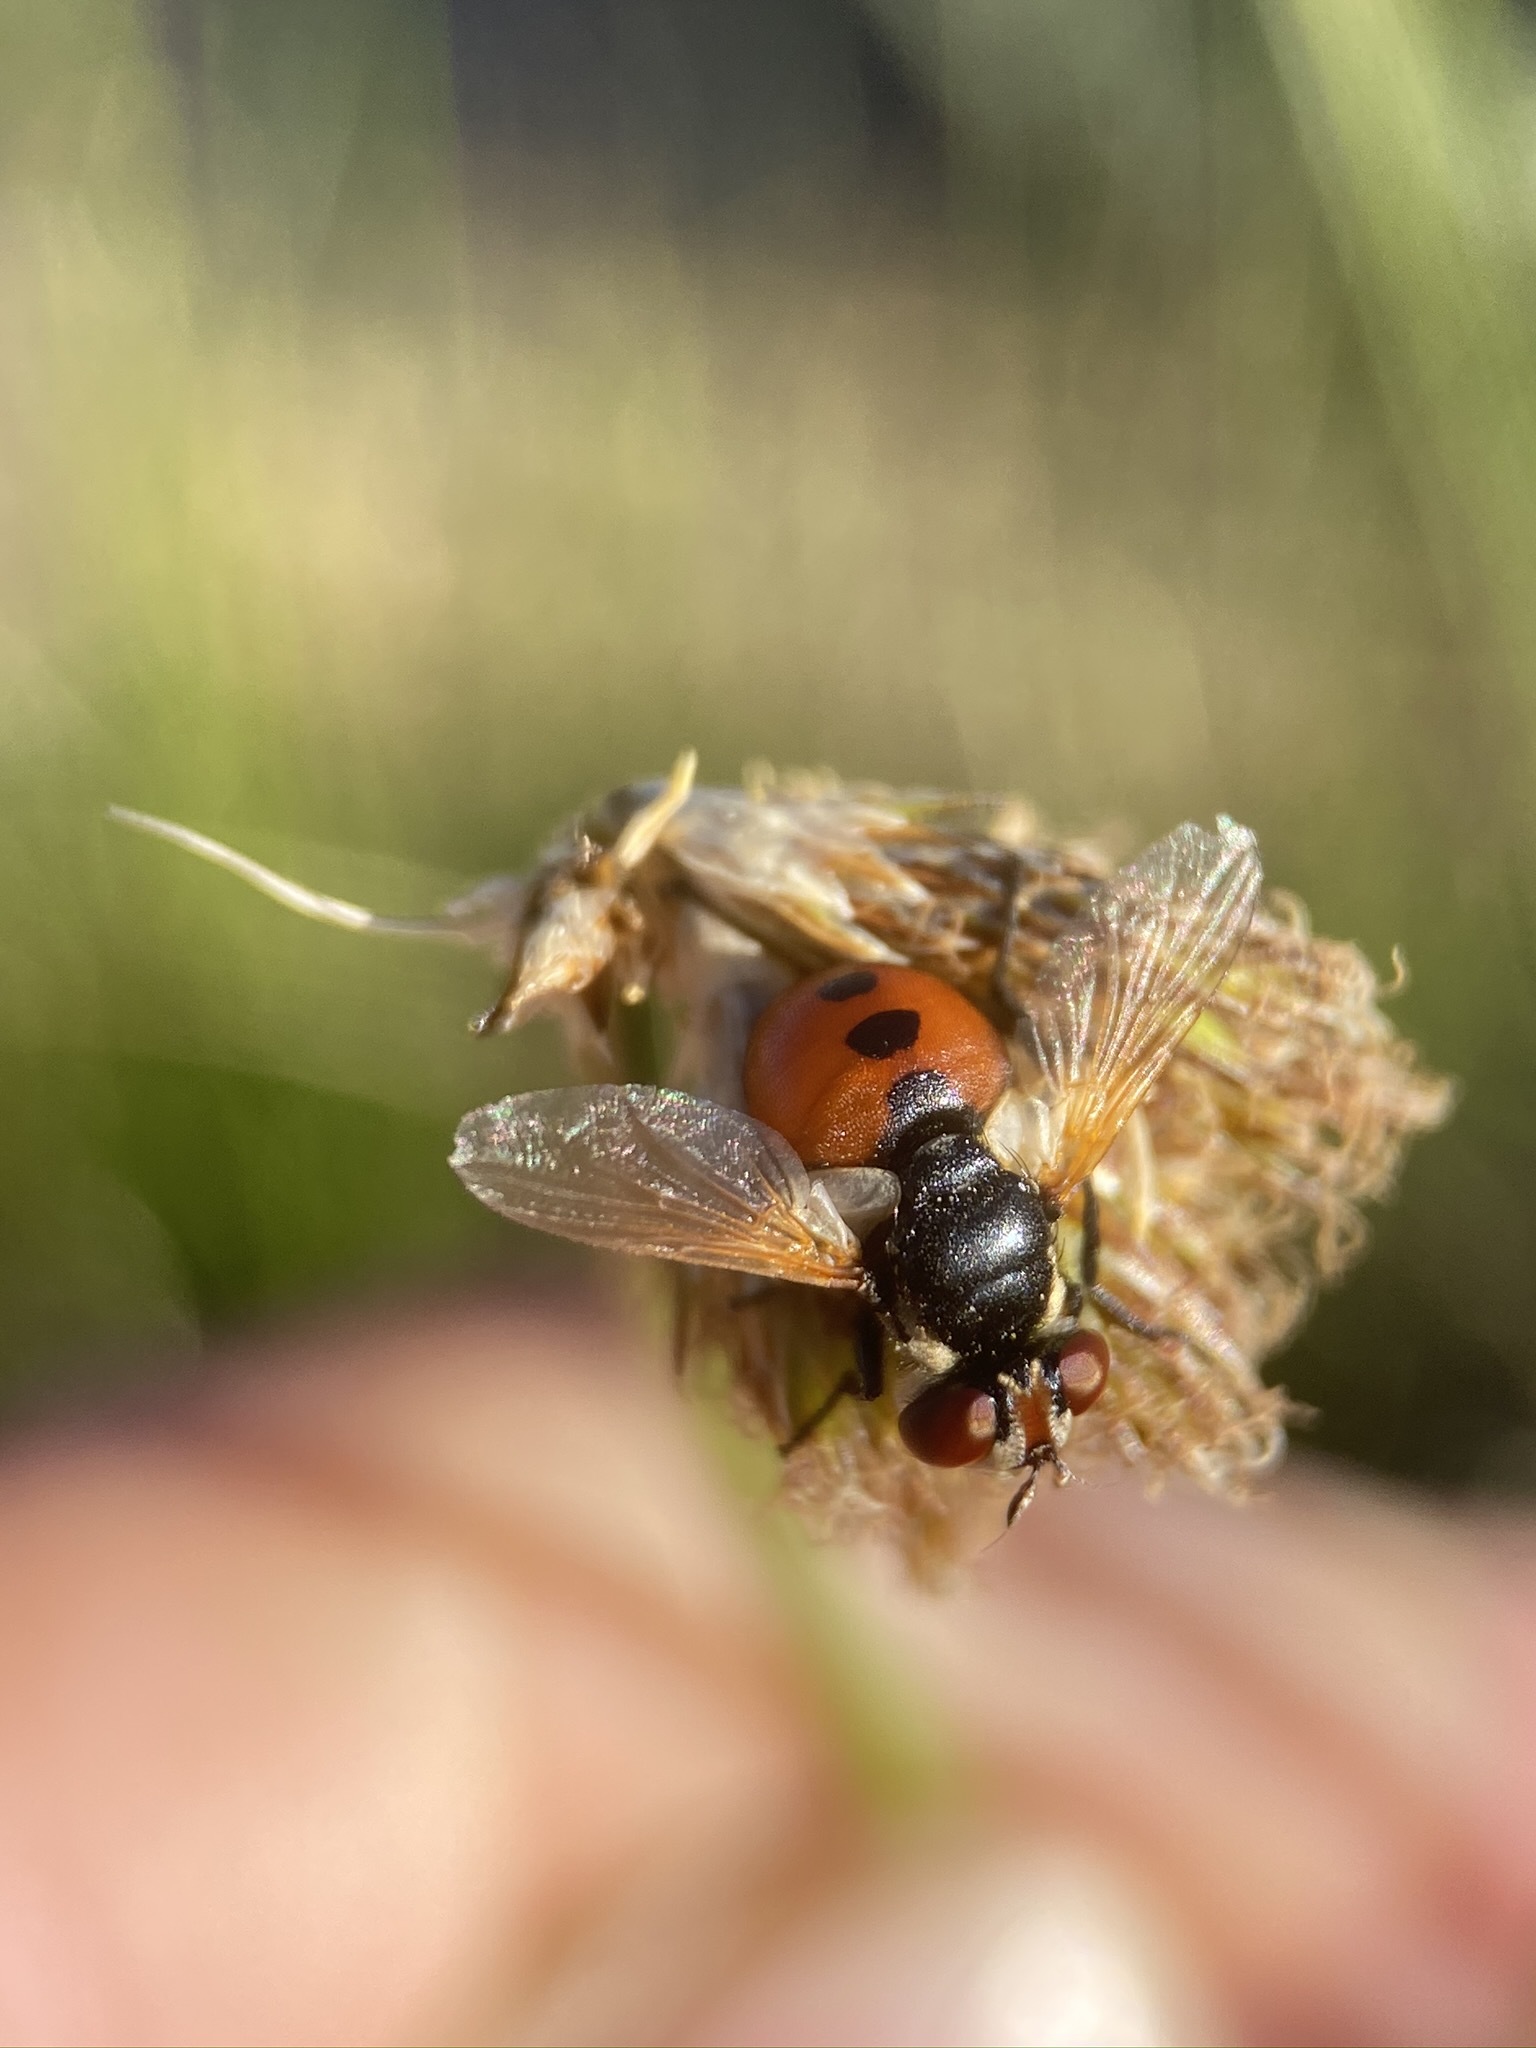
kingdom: Animalia
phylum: Arthropoda
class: Insecta
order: Diptera
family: Tachinidae
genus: Gymnosoma
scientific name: Gymnosoma
